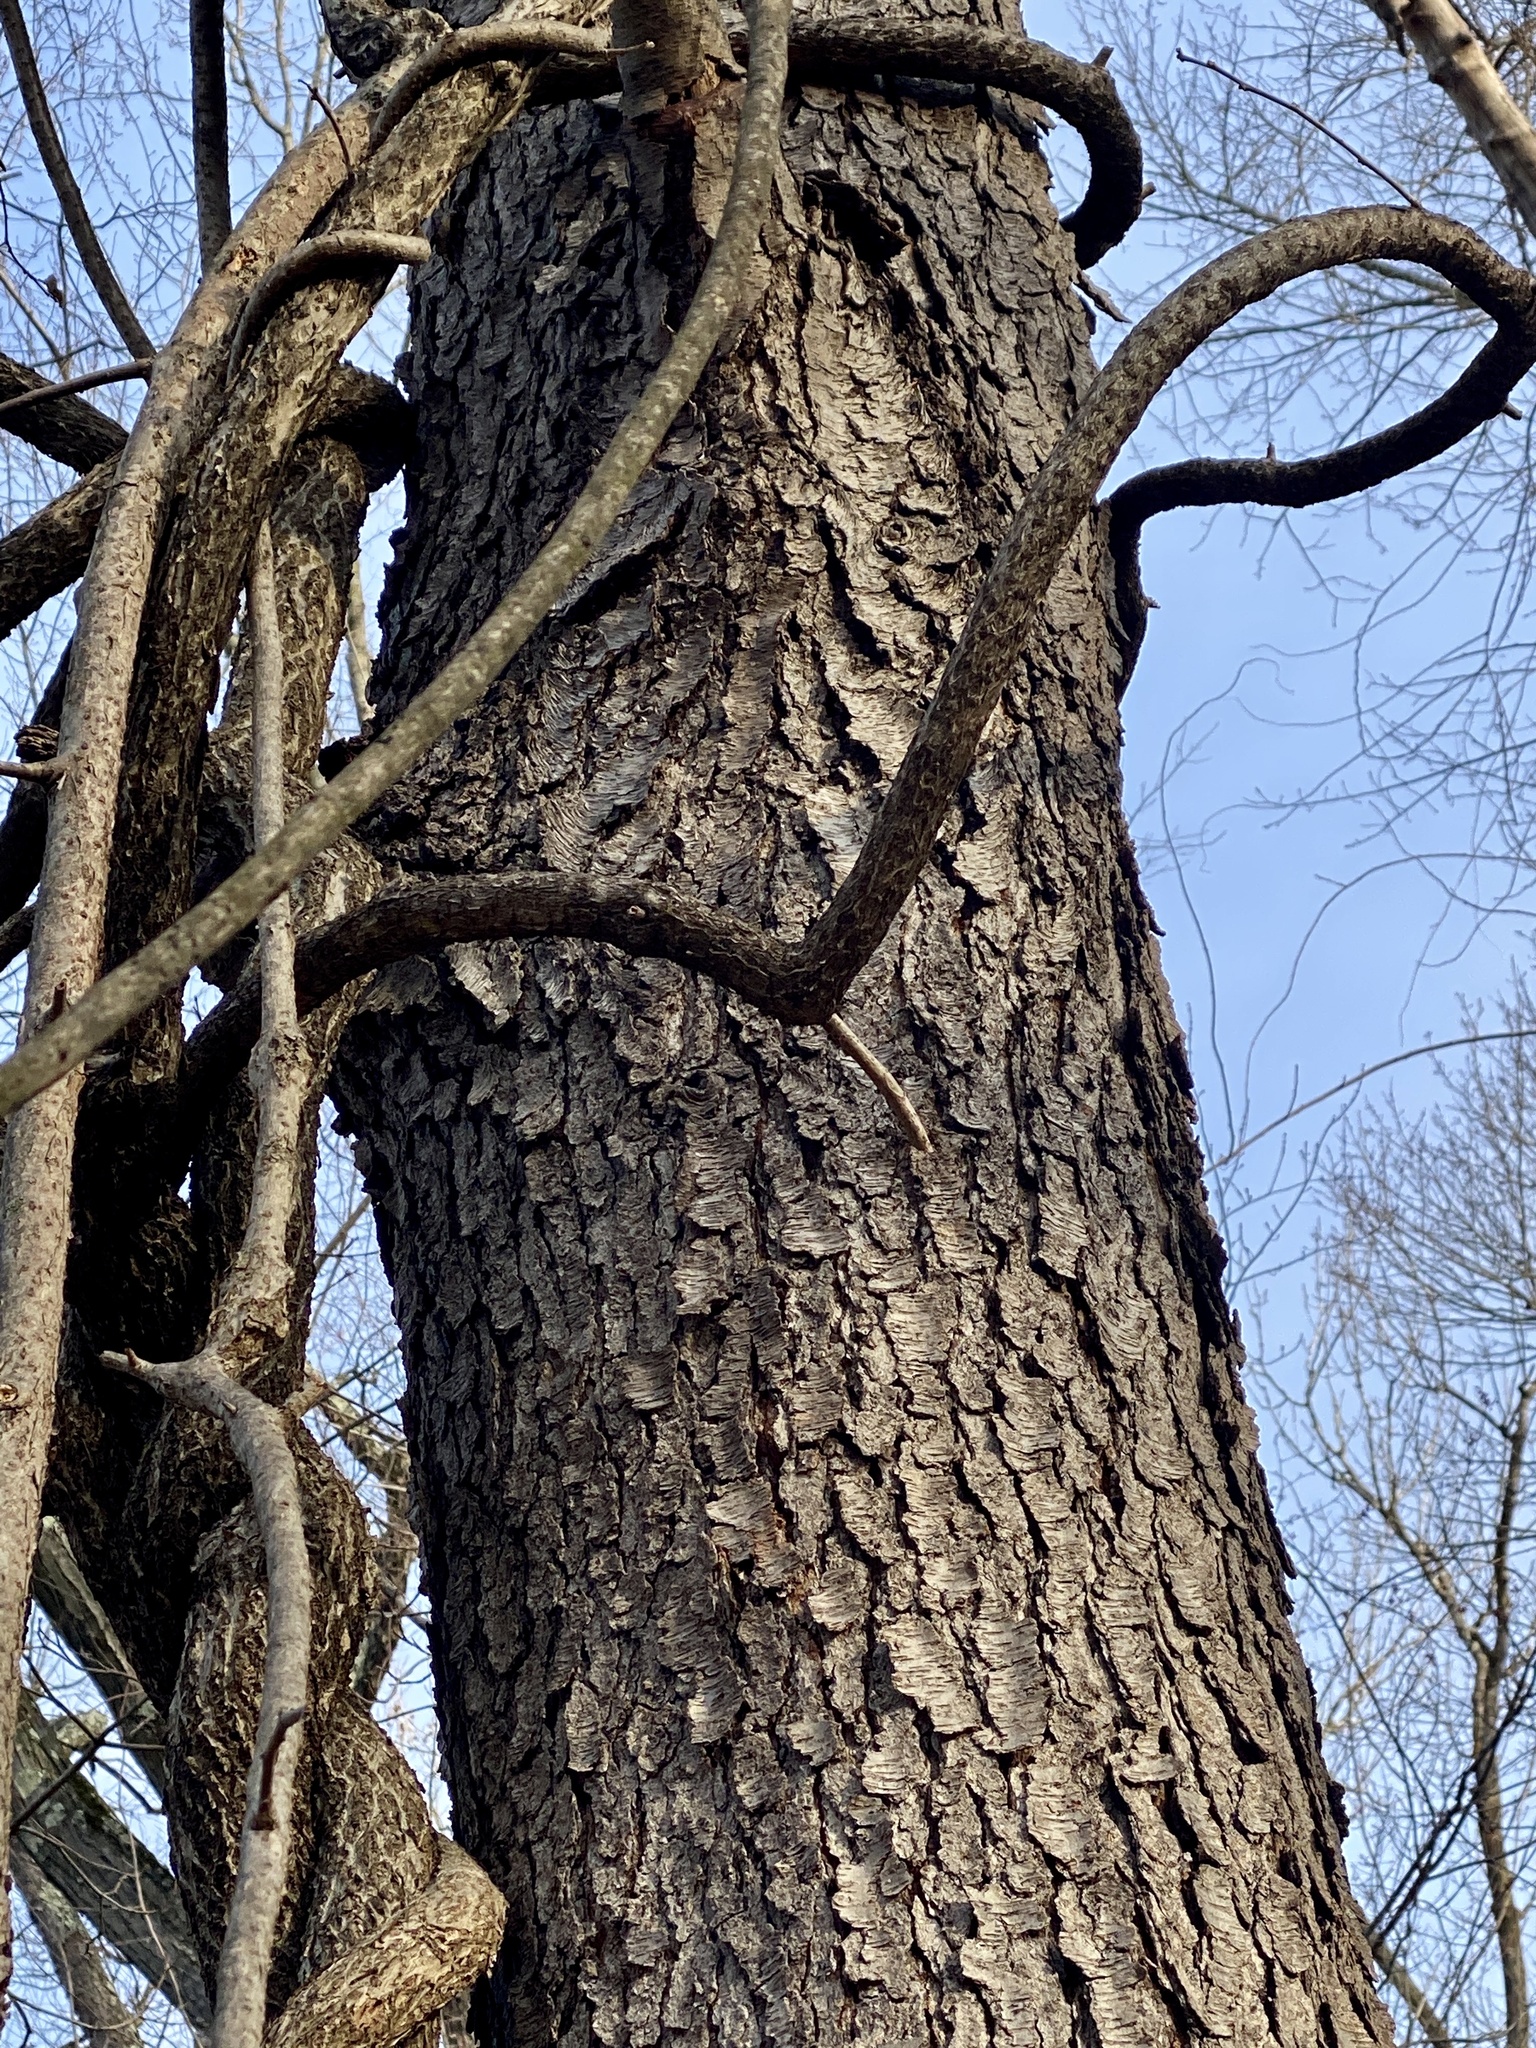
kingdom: Plantae
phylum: Tracheophyta
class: Magnoliopsida
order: Rosales
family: Rosaceae
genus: Prunus
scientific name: Prunus serotina
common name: Black cherry
